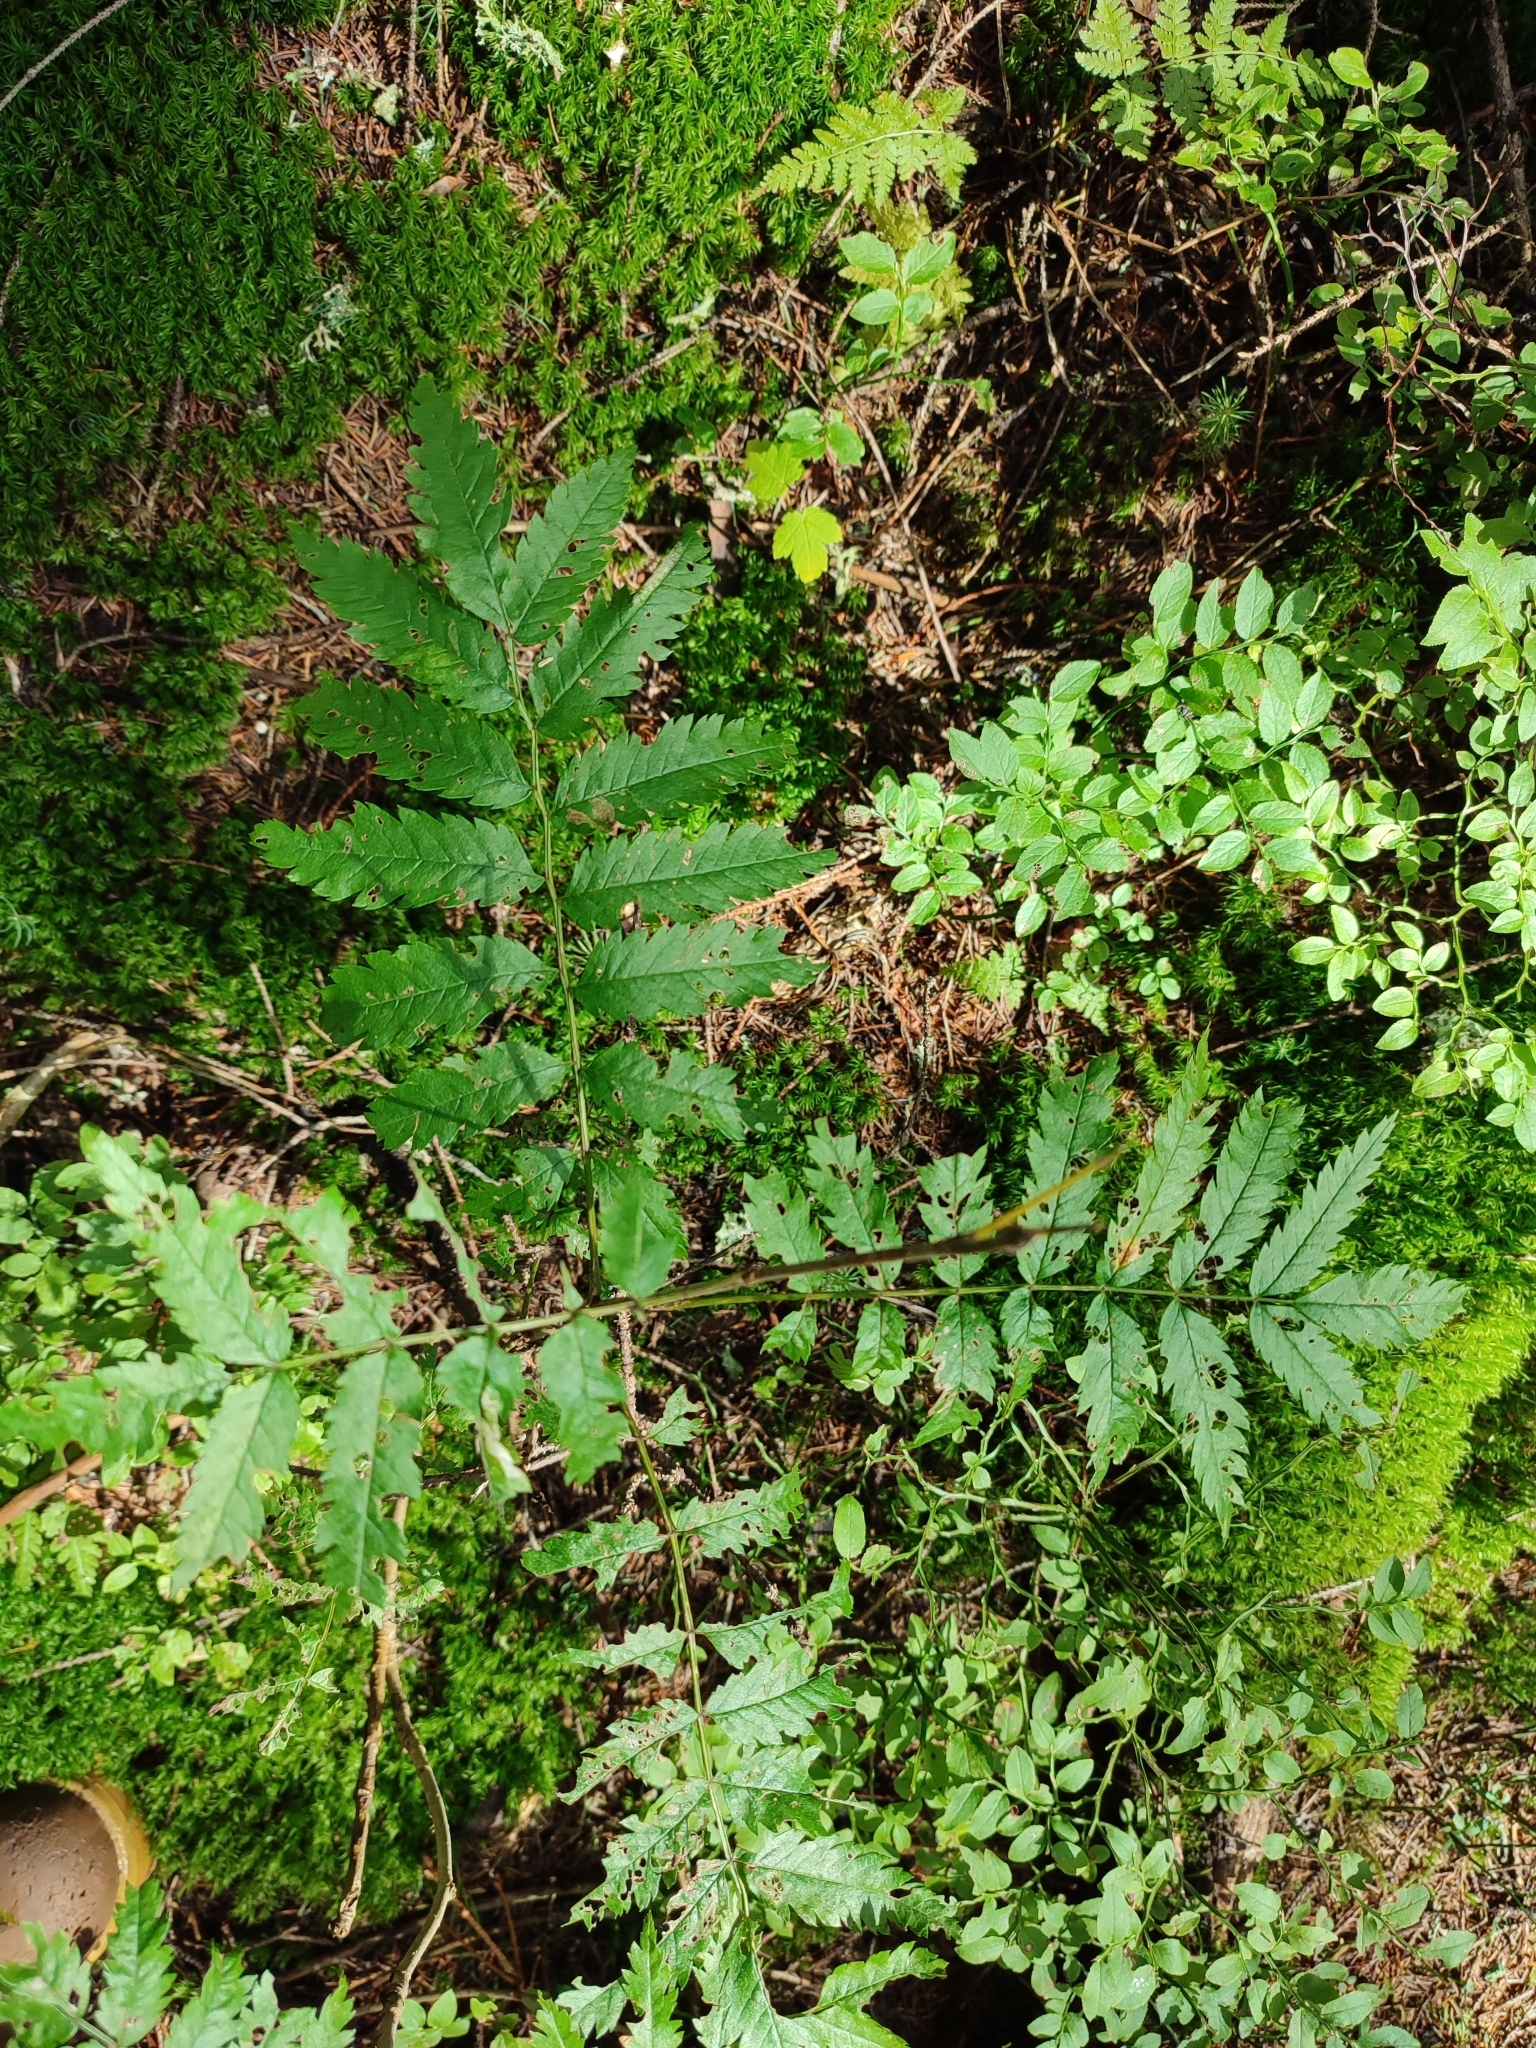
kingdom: Plantae
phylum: Tracheophyta
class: Magnoliopsida
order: Rosales
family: Rosaceae
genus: Sorbus
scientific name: Sorbus aucuparia
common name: Rowan
